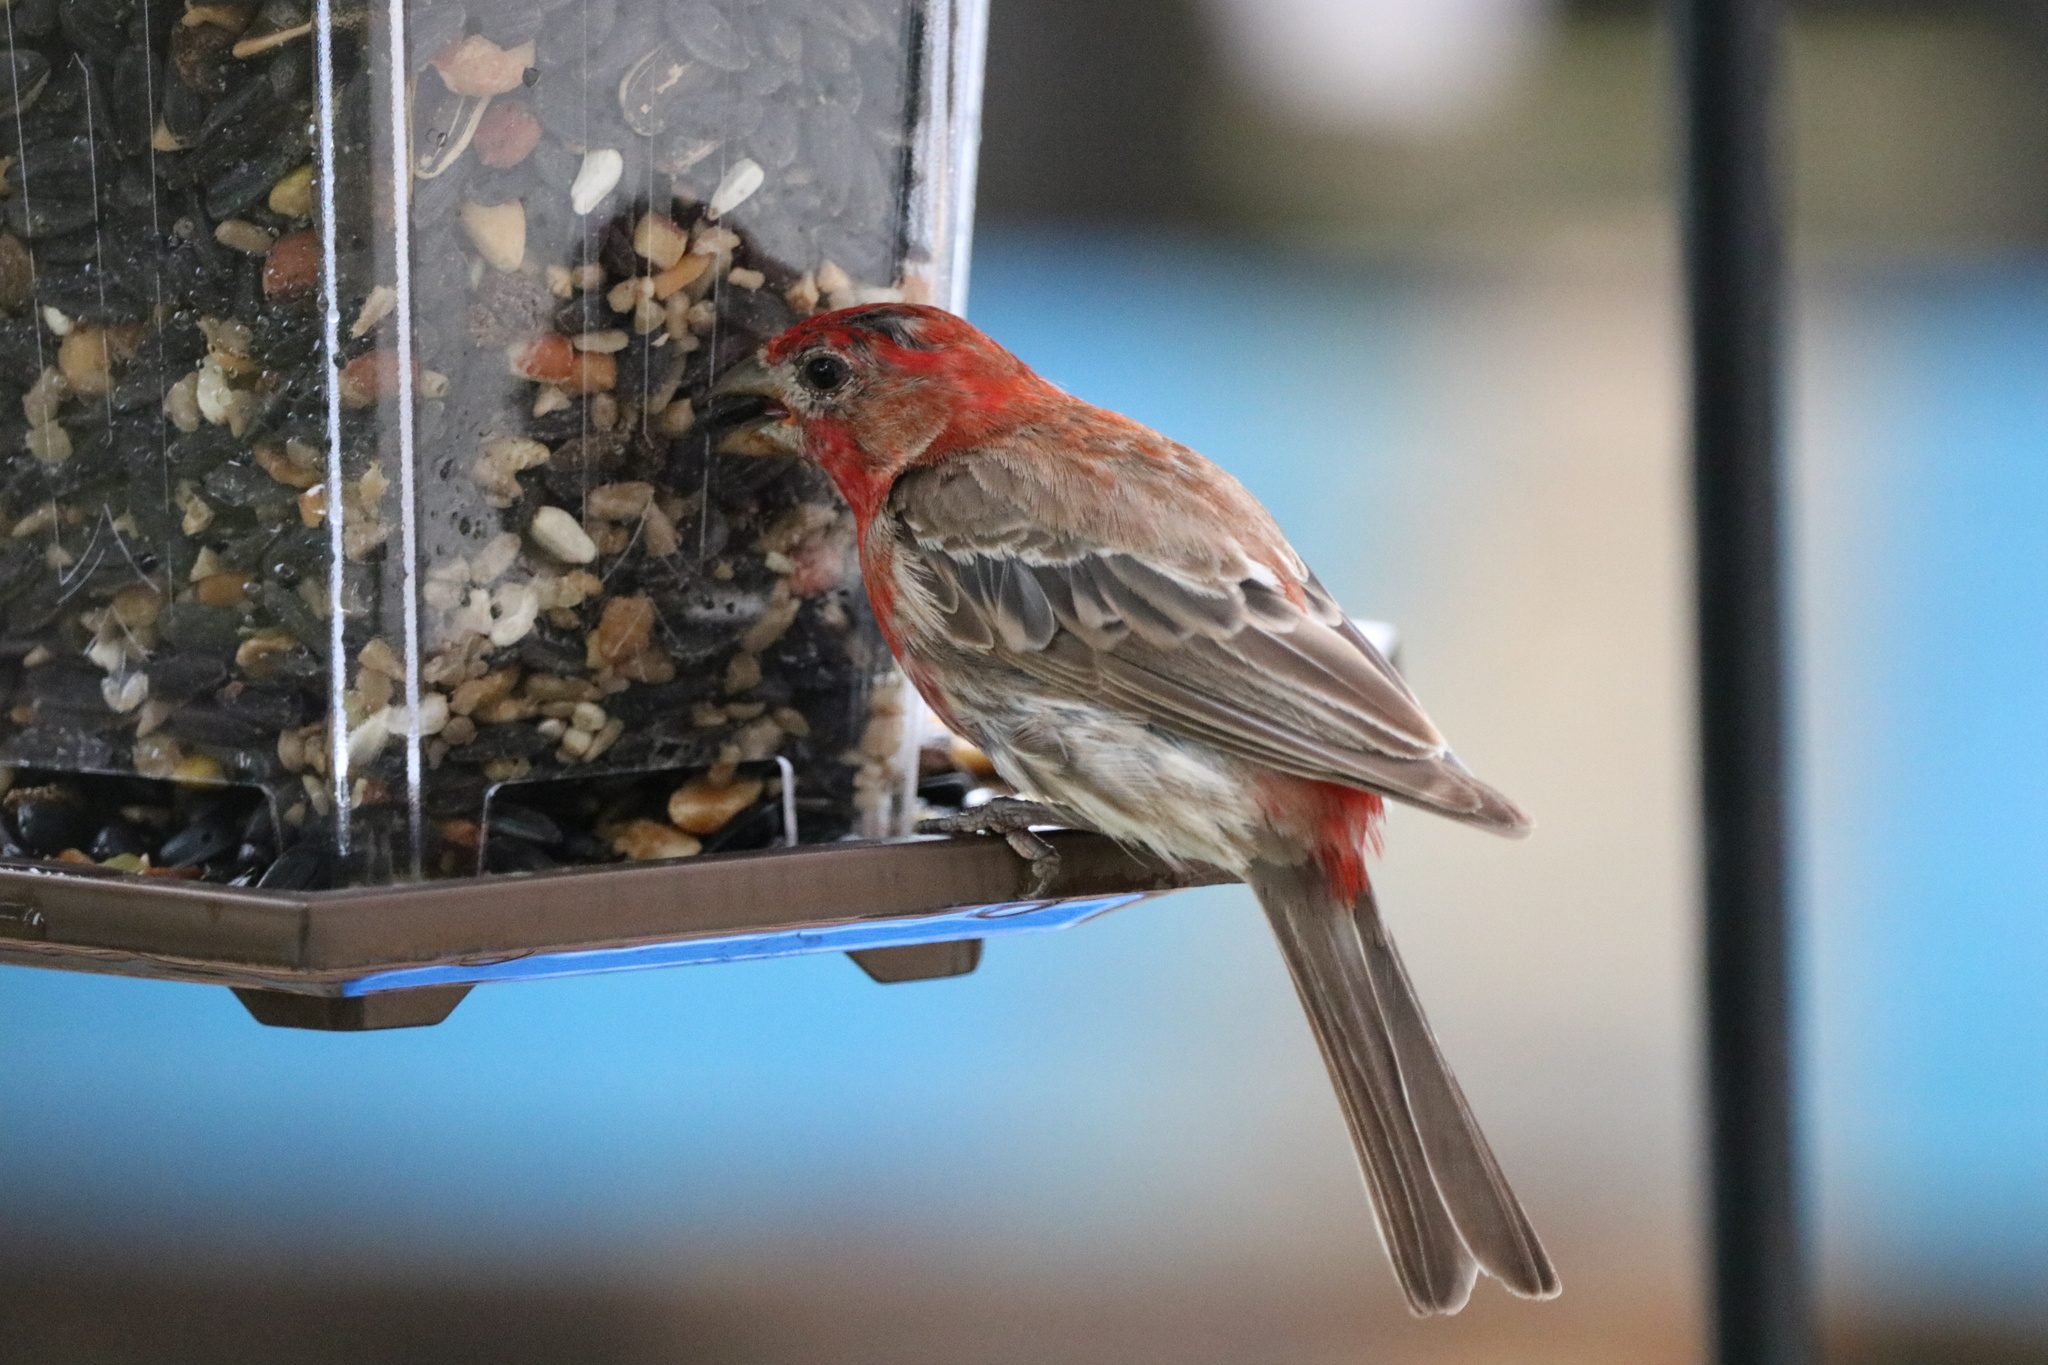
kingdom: Animalia
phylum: Chordata
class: Aves
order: Passeriformes
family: Fringillidae
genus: Haemorhous
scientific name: Haemorhous mexicanus
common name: House finch
